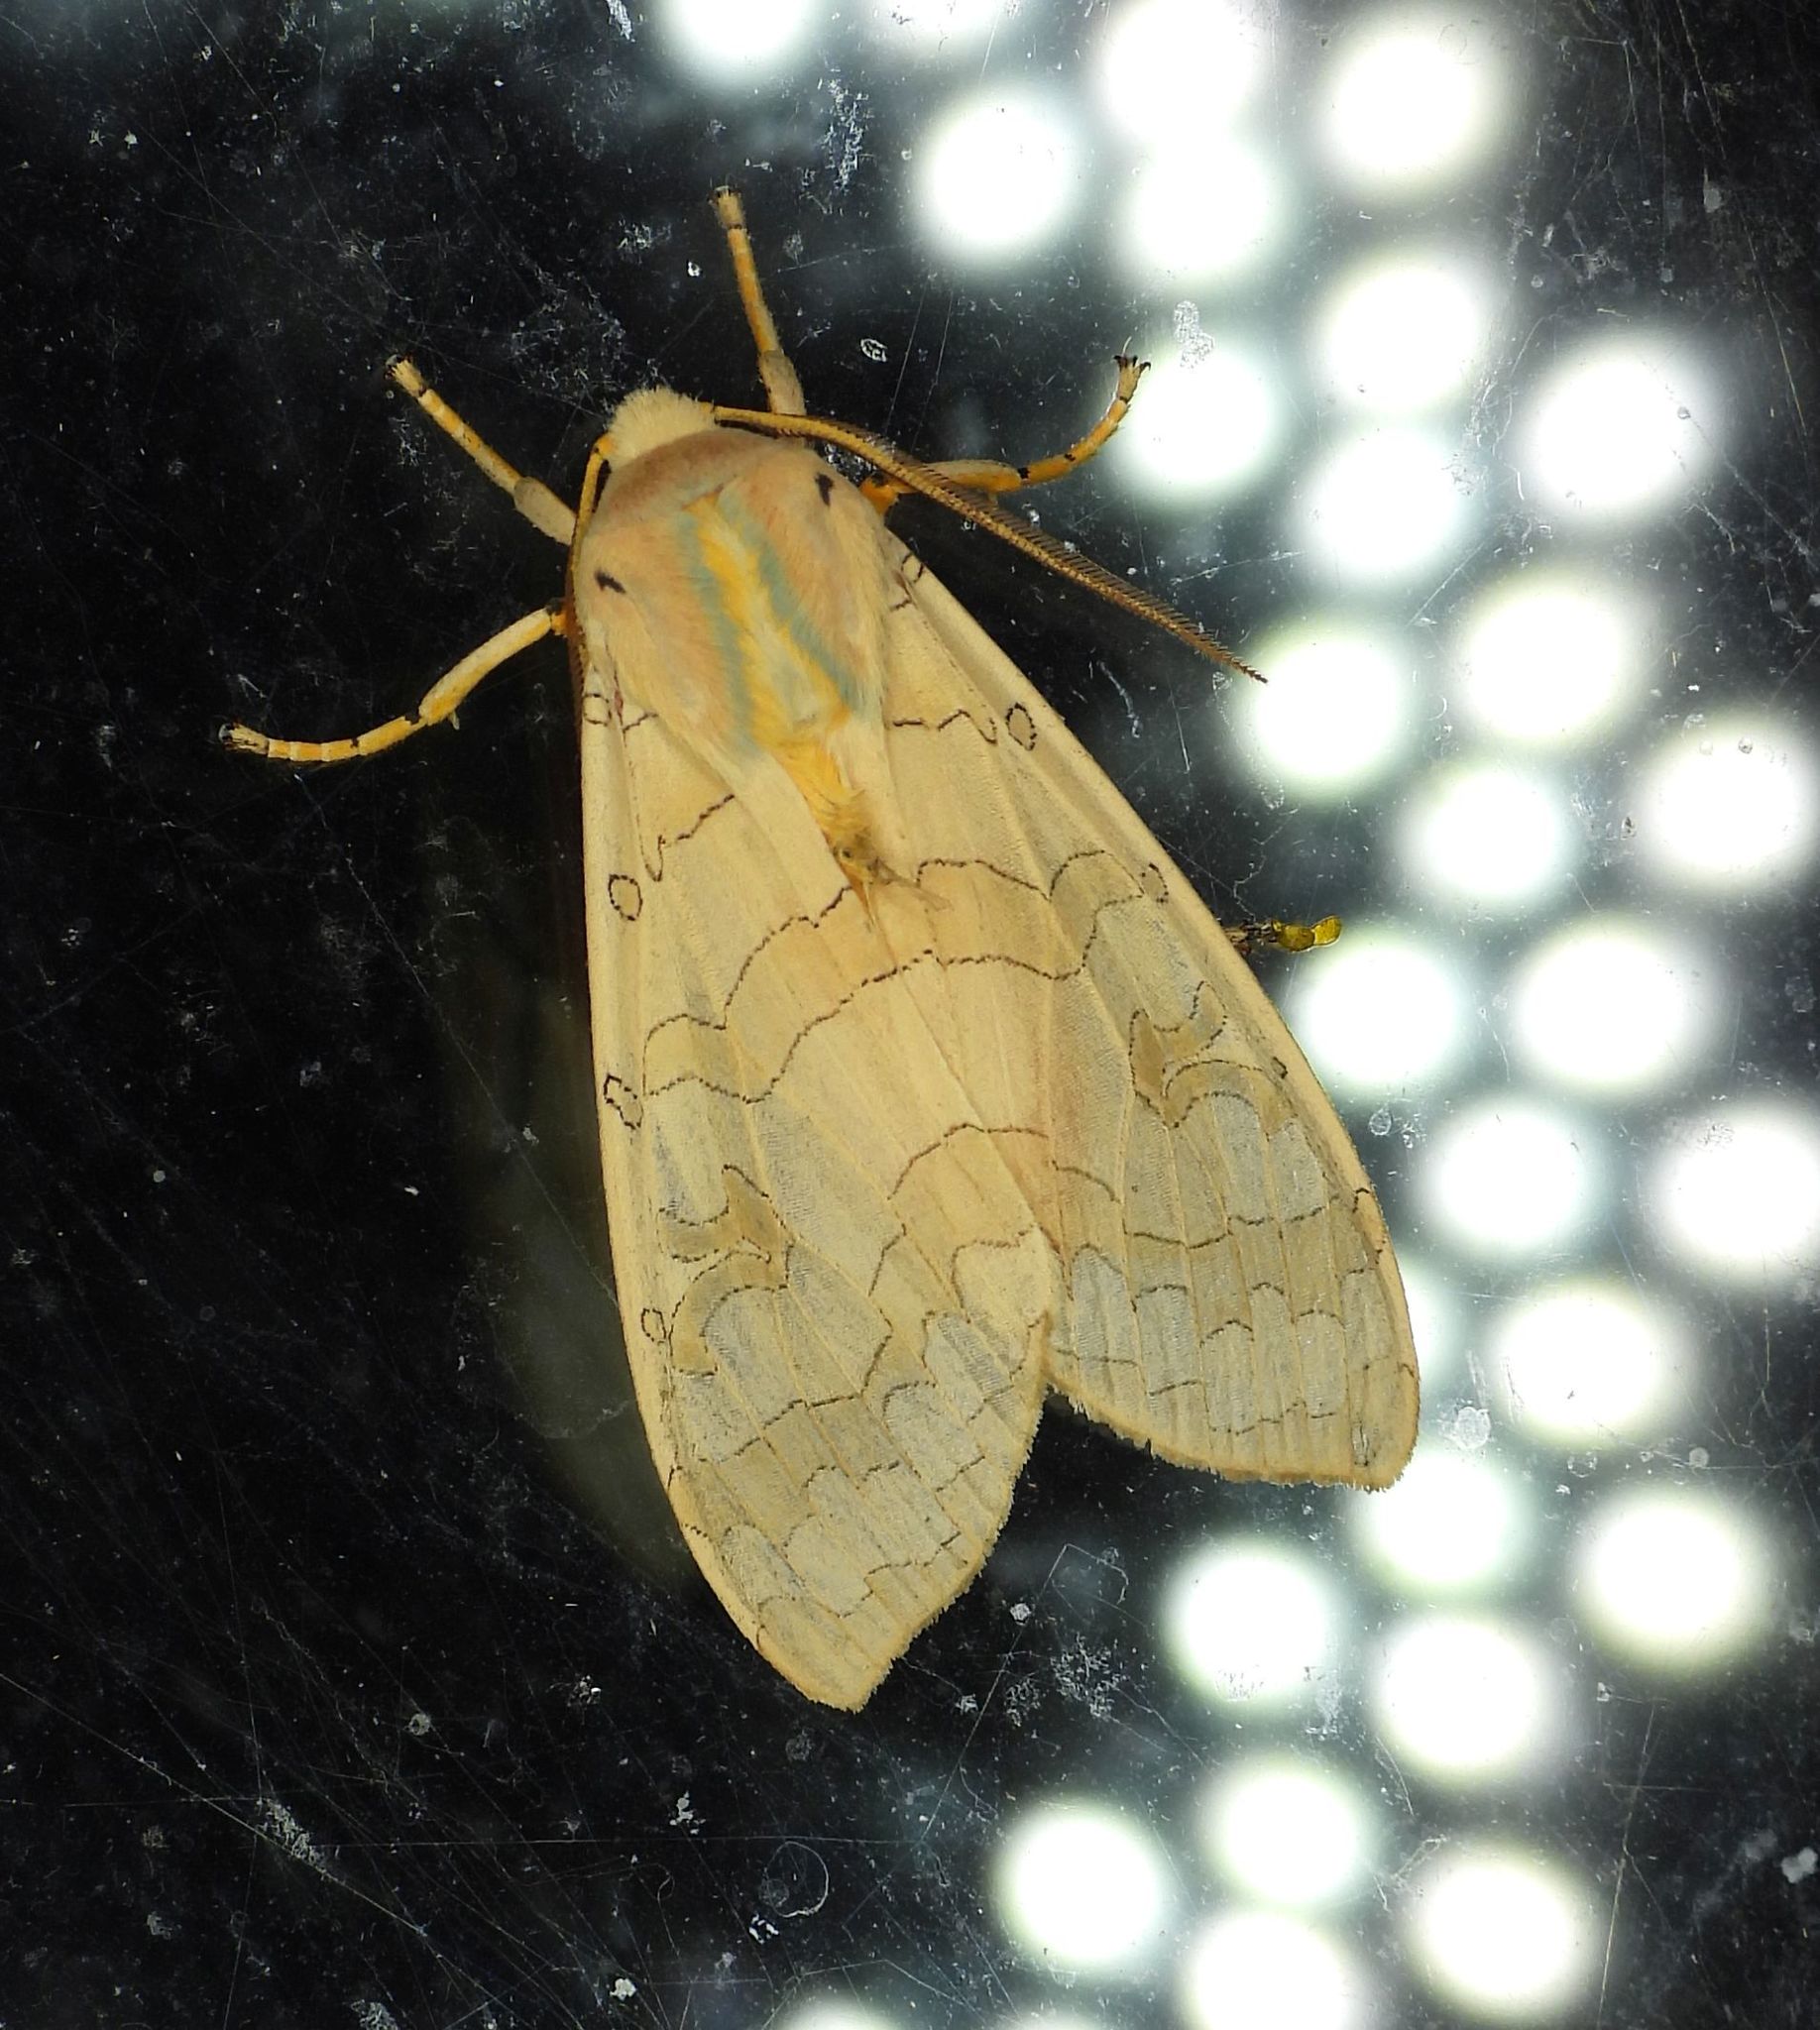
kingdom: Animalia
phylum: Arthropoda
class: Insecta
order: Lepidoptera
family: Erebidae
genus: Halysidota
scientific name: Halysidota tessellaris
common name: Banded tussock moth
